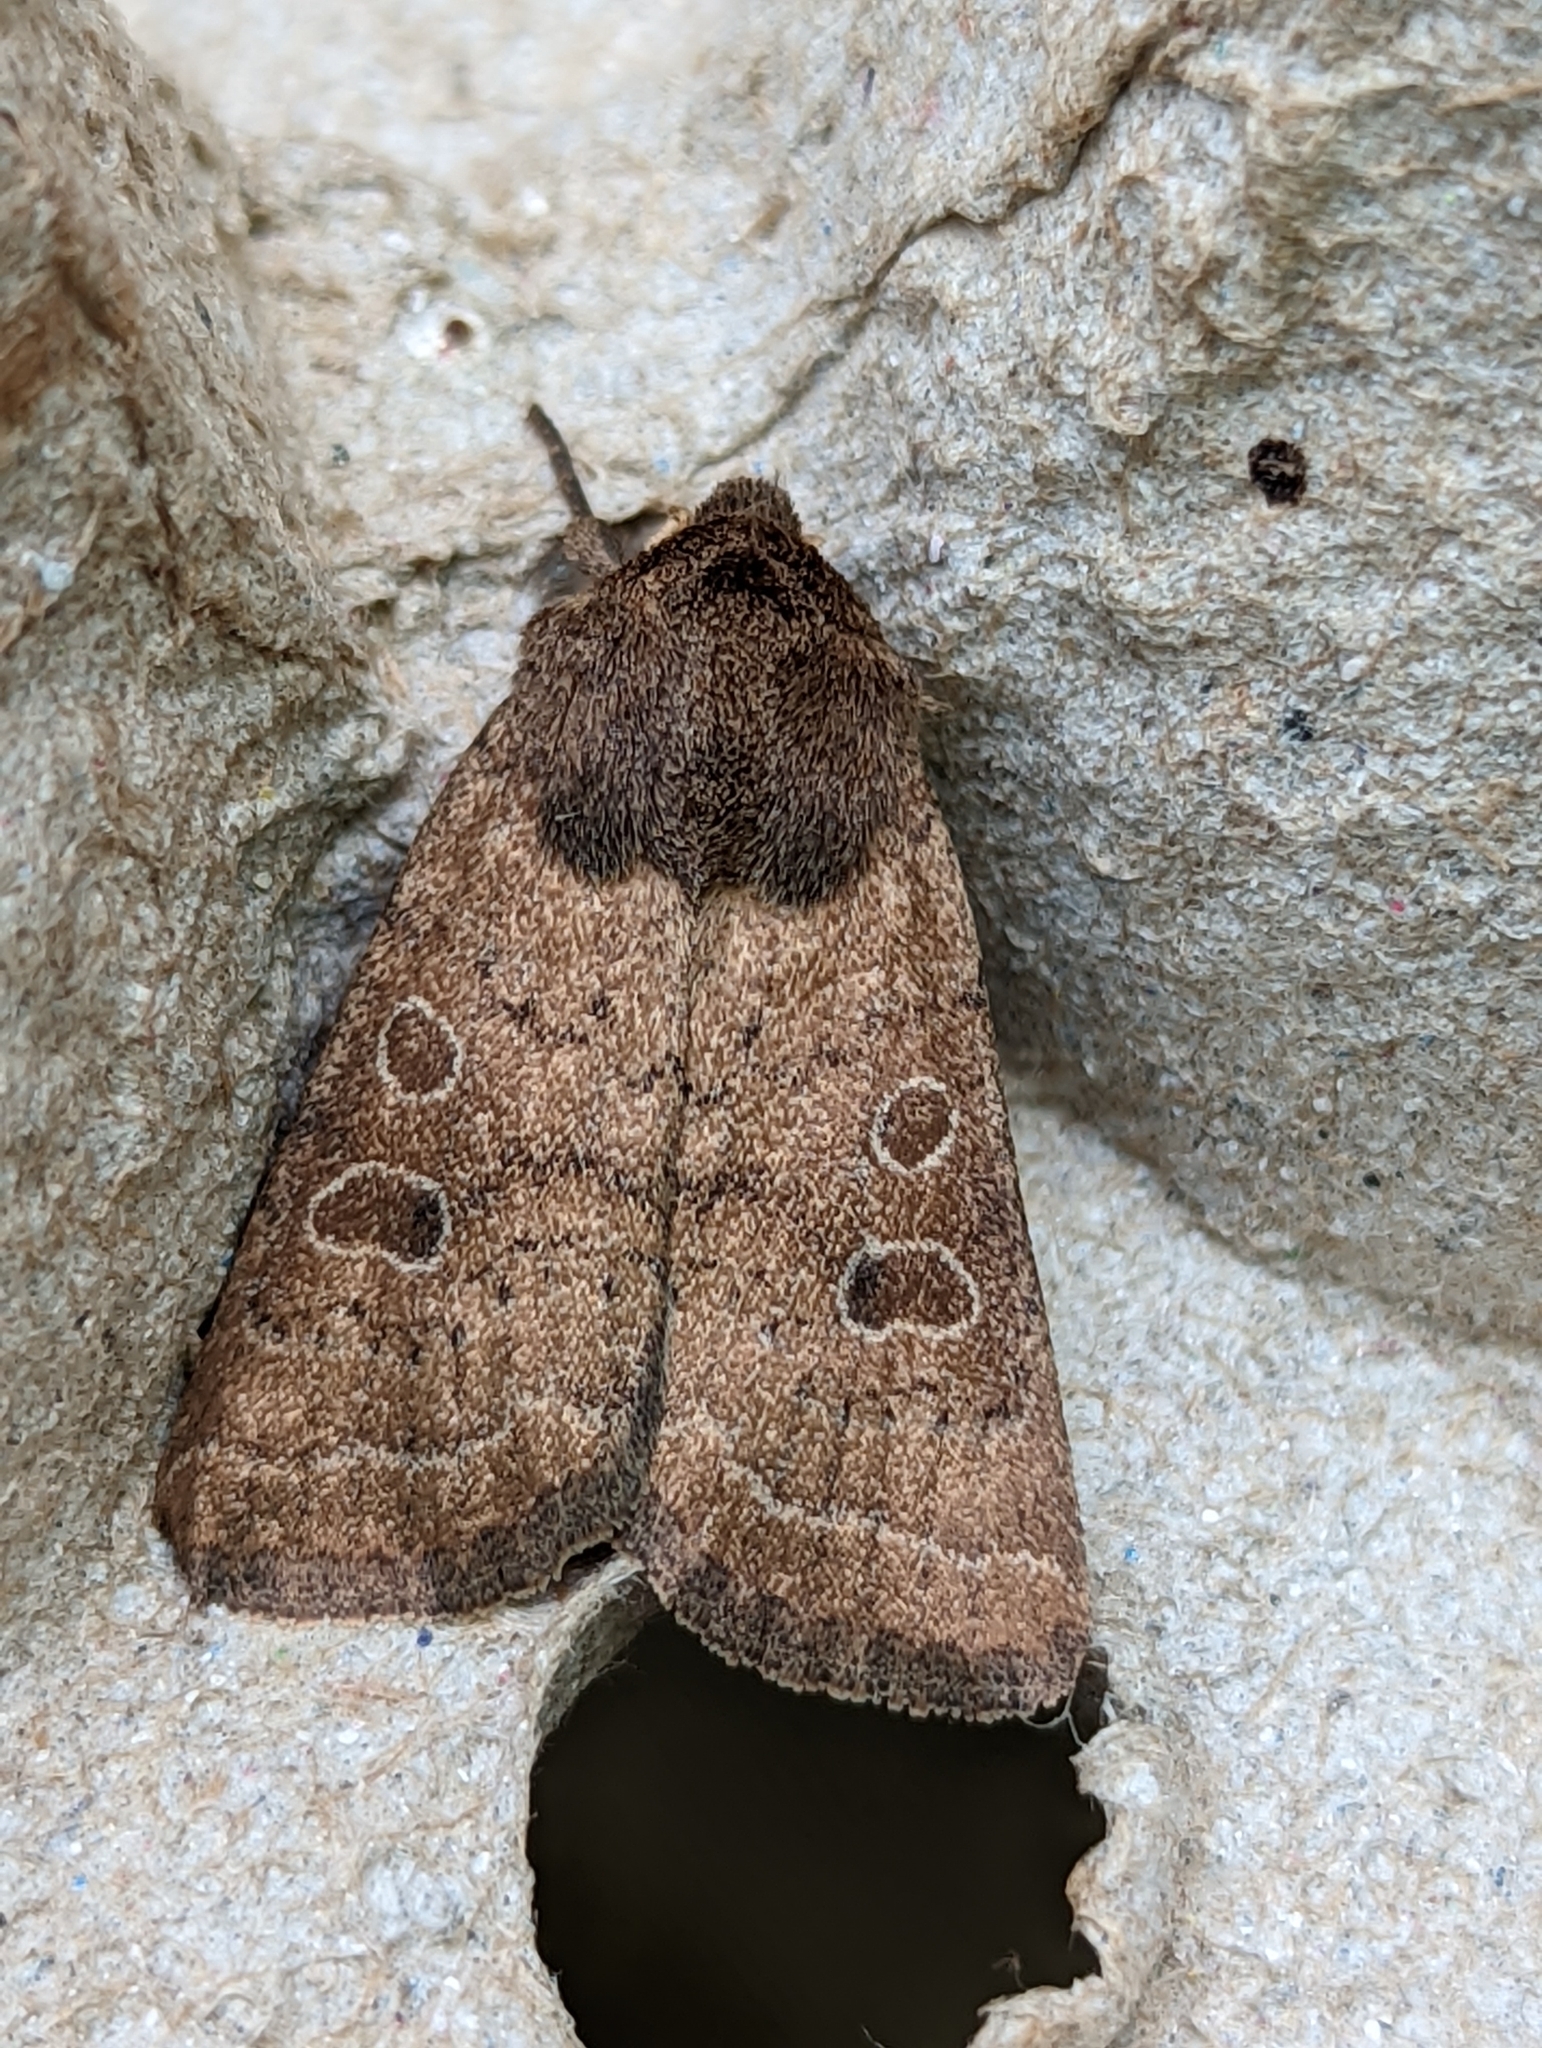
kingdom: Animalia
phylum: Arthropoda
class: Insecta
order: Lepidoptera
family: Noctuidae
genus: Hoplodrina
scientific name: Hoplodrina octogenaria
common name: Uncertain
